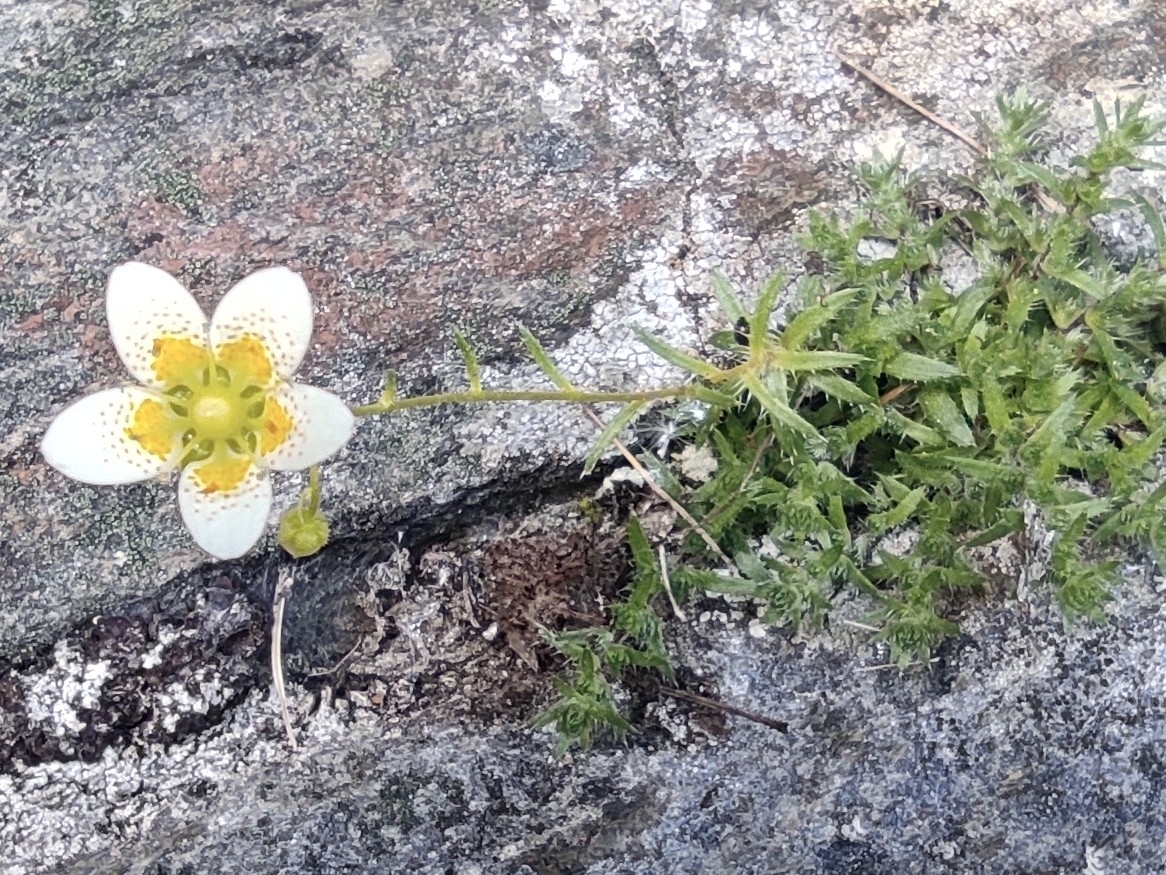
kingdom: Plantae
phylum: Tracheophyta
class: Magnoliopsida
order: Saxifragales
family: Saxifragaceae
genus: Saxifraga
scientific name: Saxifraga aspera
